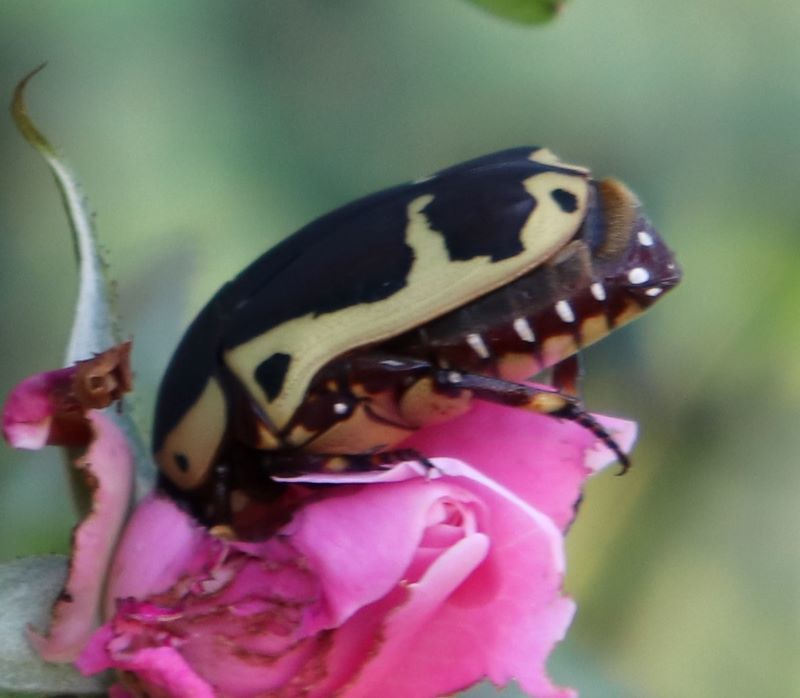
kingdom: Animalia
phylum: Arthropoda
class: Insecta
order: Coleoptera
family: Scarabaeidae
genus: Pachnoda
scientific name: Pachnoda sinuata
